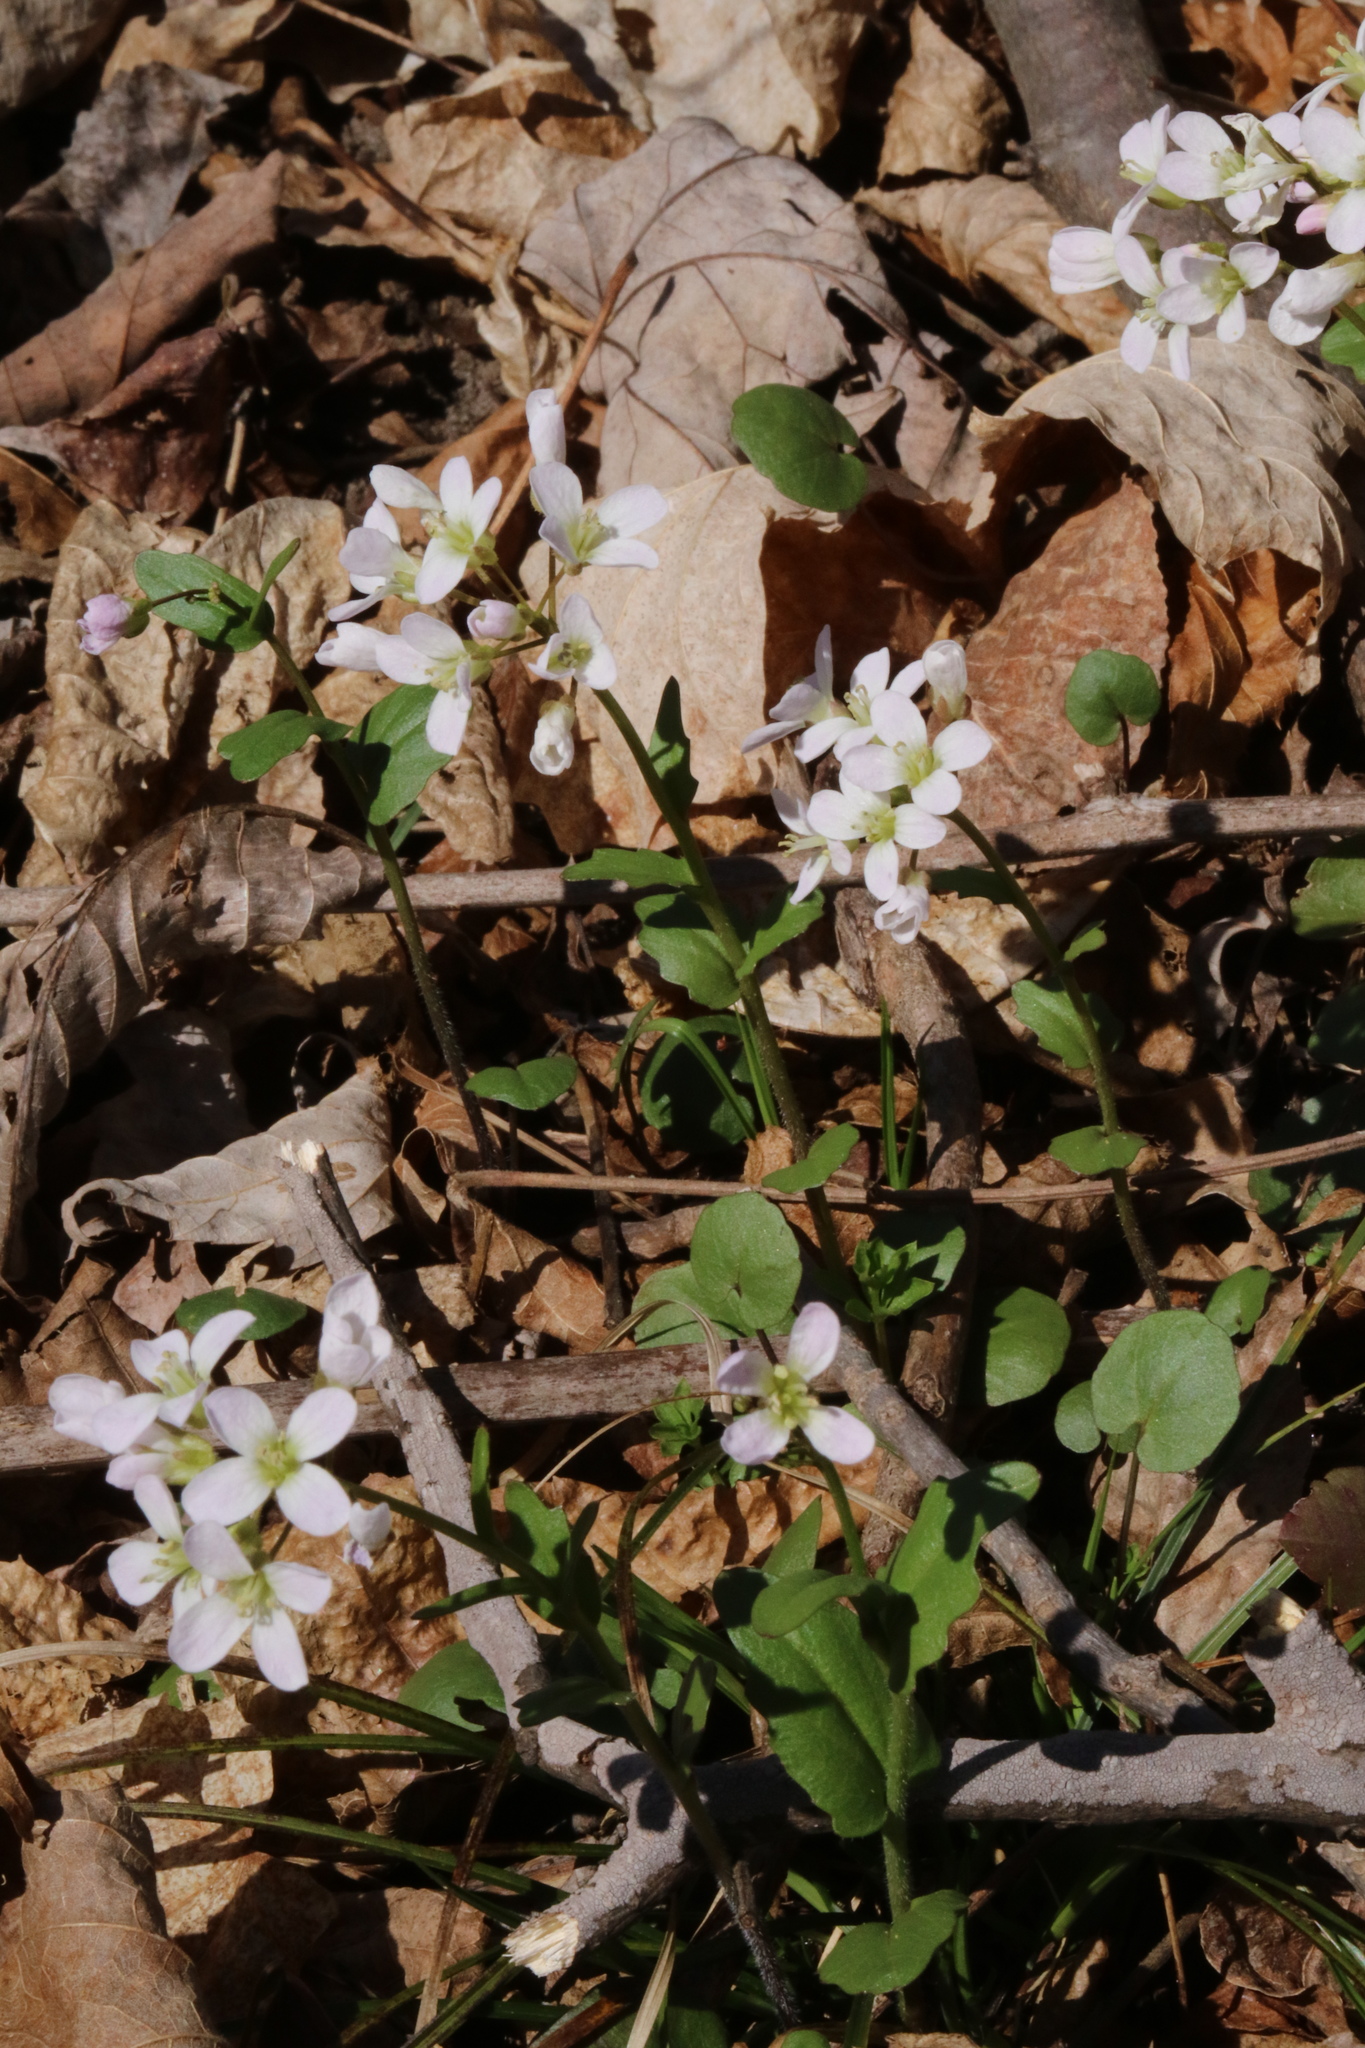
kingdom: Plantae
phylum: Tracheophyta
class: Magnoliopsida
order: Brassicales
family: Brassicaceae
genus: Cardamine
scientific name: Cardamine douglassii
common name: Purple cress
